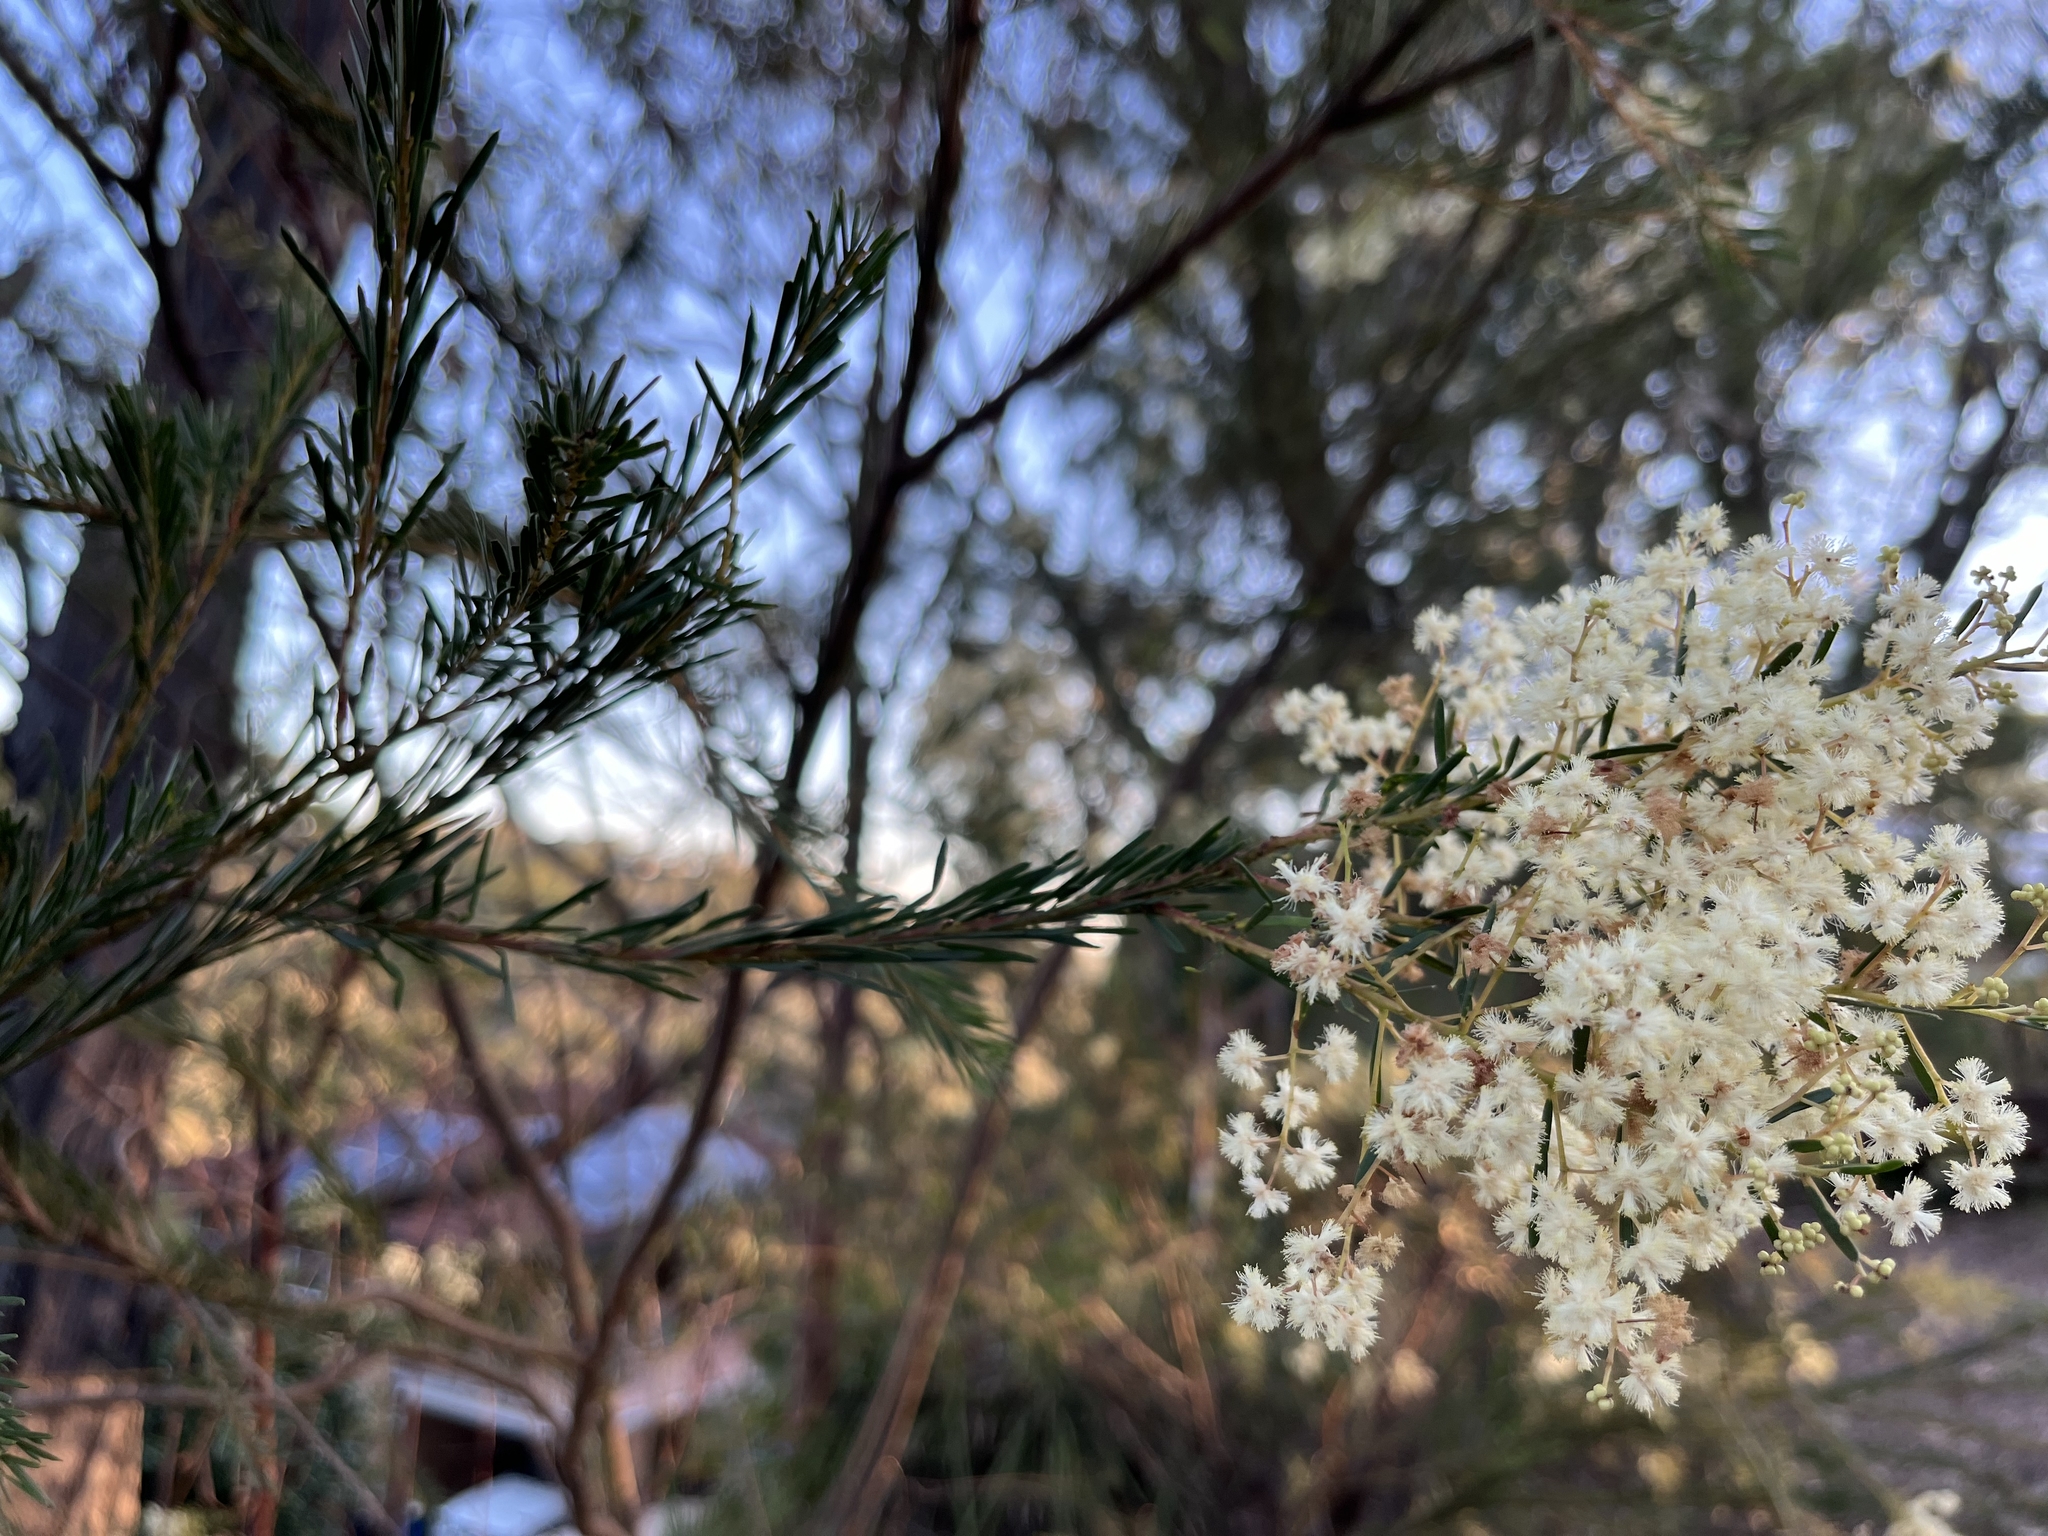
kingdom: Plantae
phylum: Tracheophyta
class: Magnoliopsida
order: Fabales
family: Fabaceae
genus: Acacia
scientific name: Acacia linifolia
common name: White wattle
